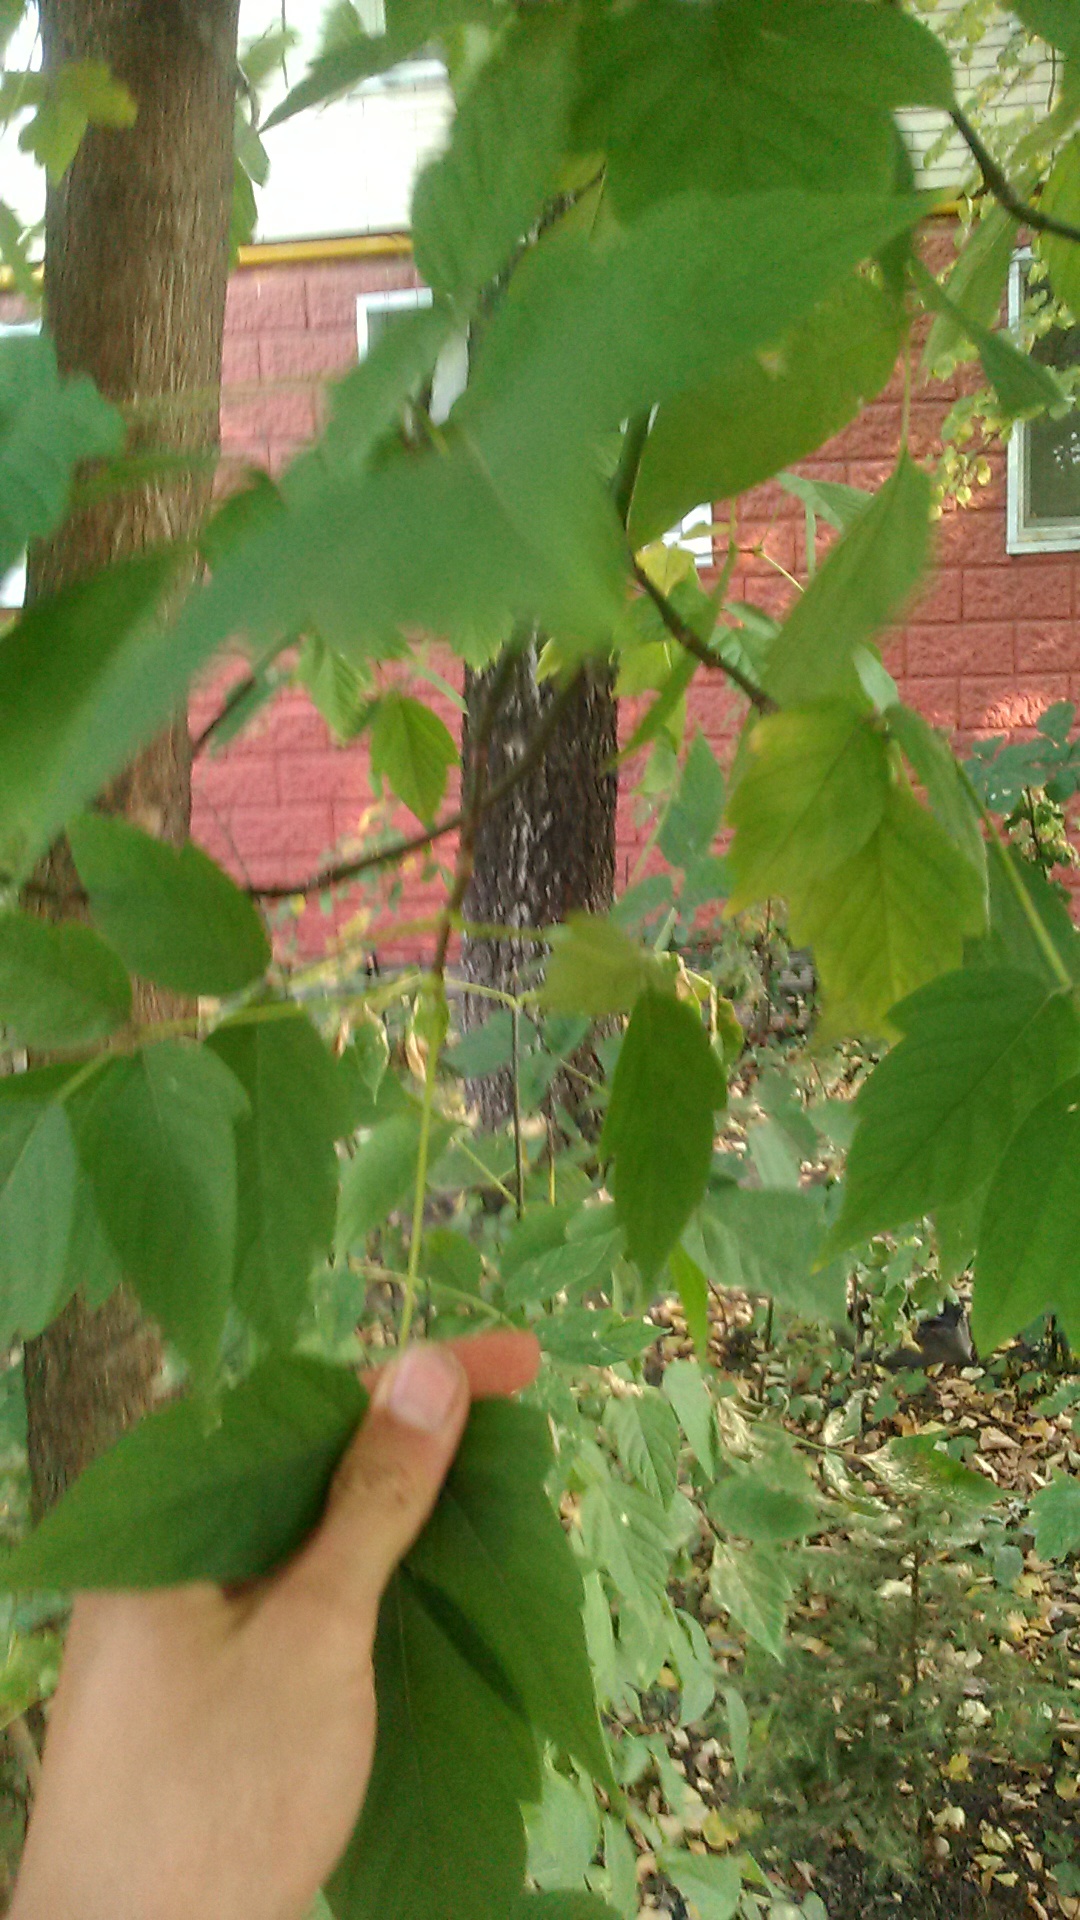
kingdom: Plantae
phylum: Tracheophyta
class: Magnoliopsida
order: Sapindales
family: Sapindaceae
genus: Acer
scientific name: Acer negundo
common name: Ashleaf maple
